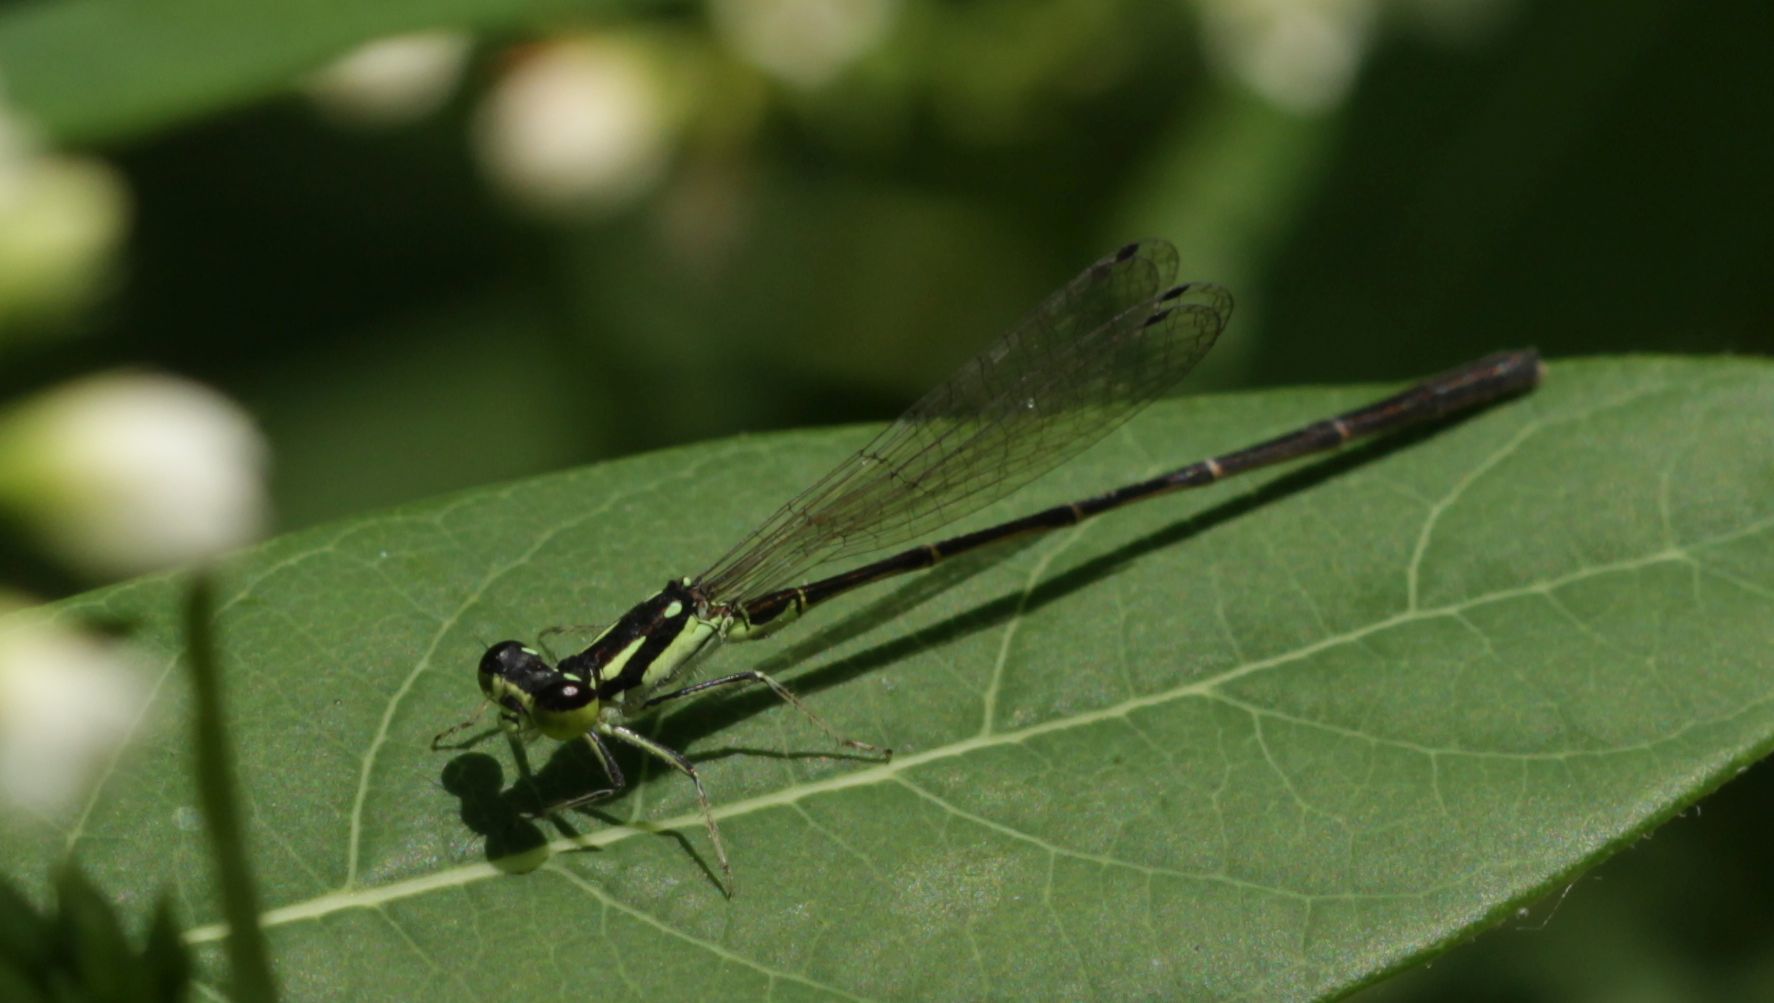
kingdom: Animalia
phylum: Arthropoda
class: Insecta
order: Odonata
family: Coenagrionidae
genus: Ischnura
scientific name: Ischnura posita
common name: Fragile forktail
